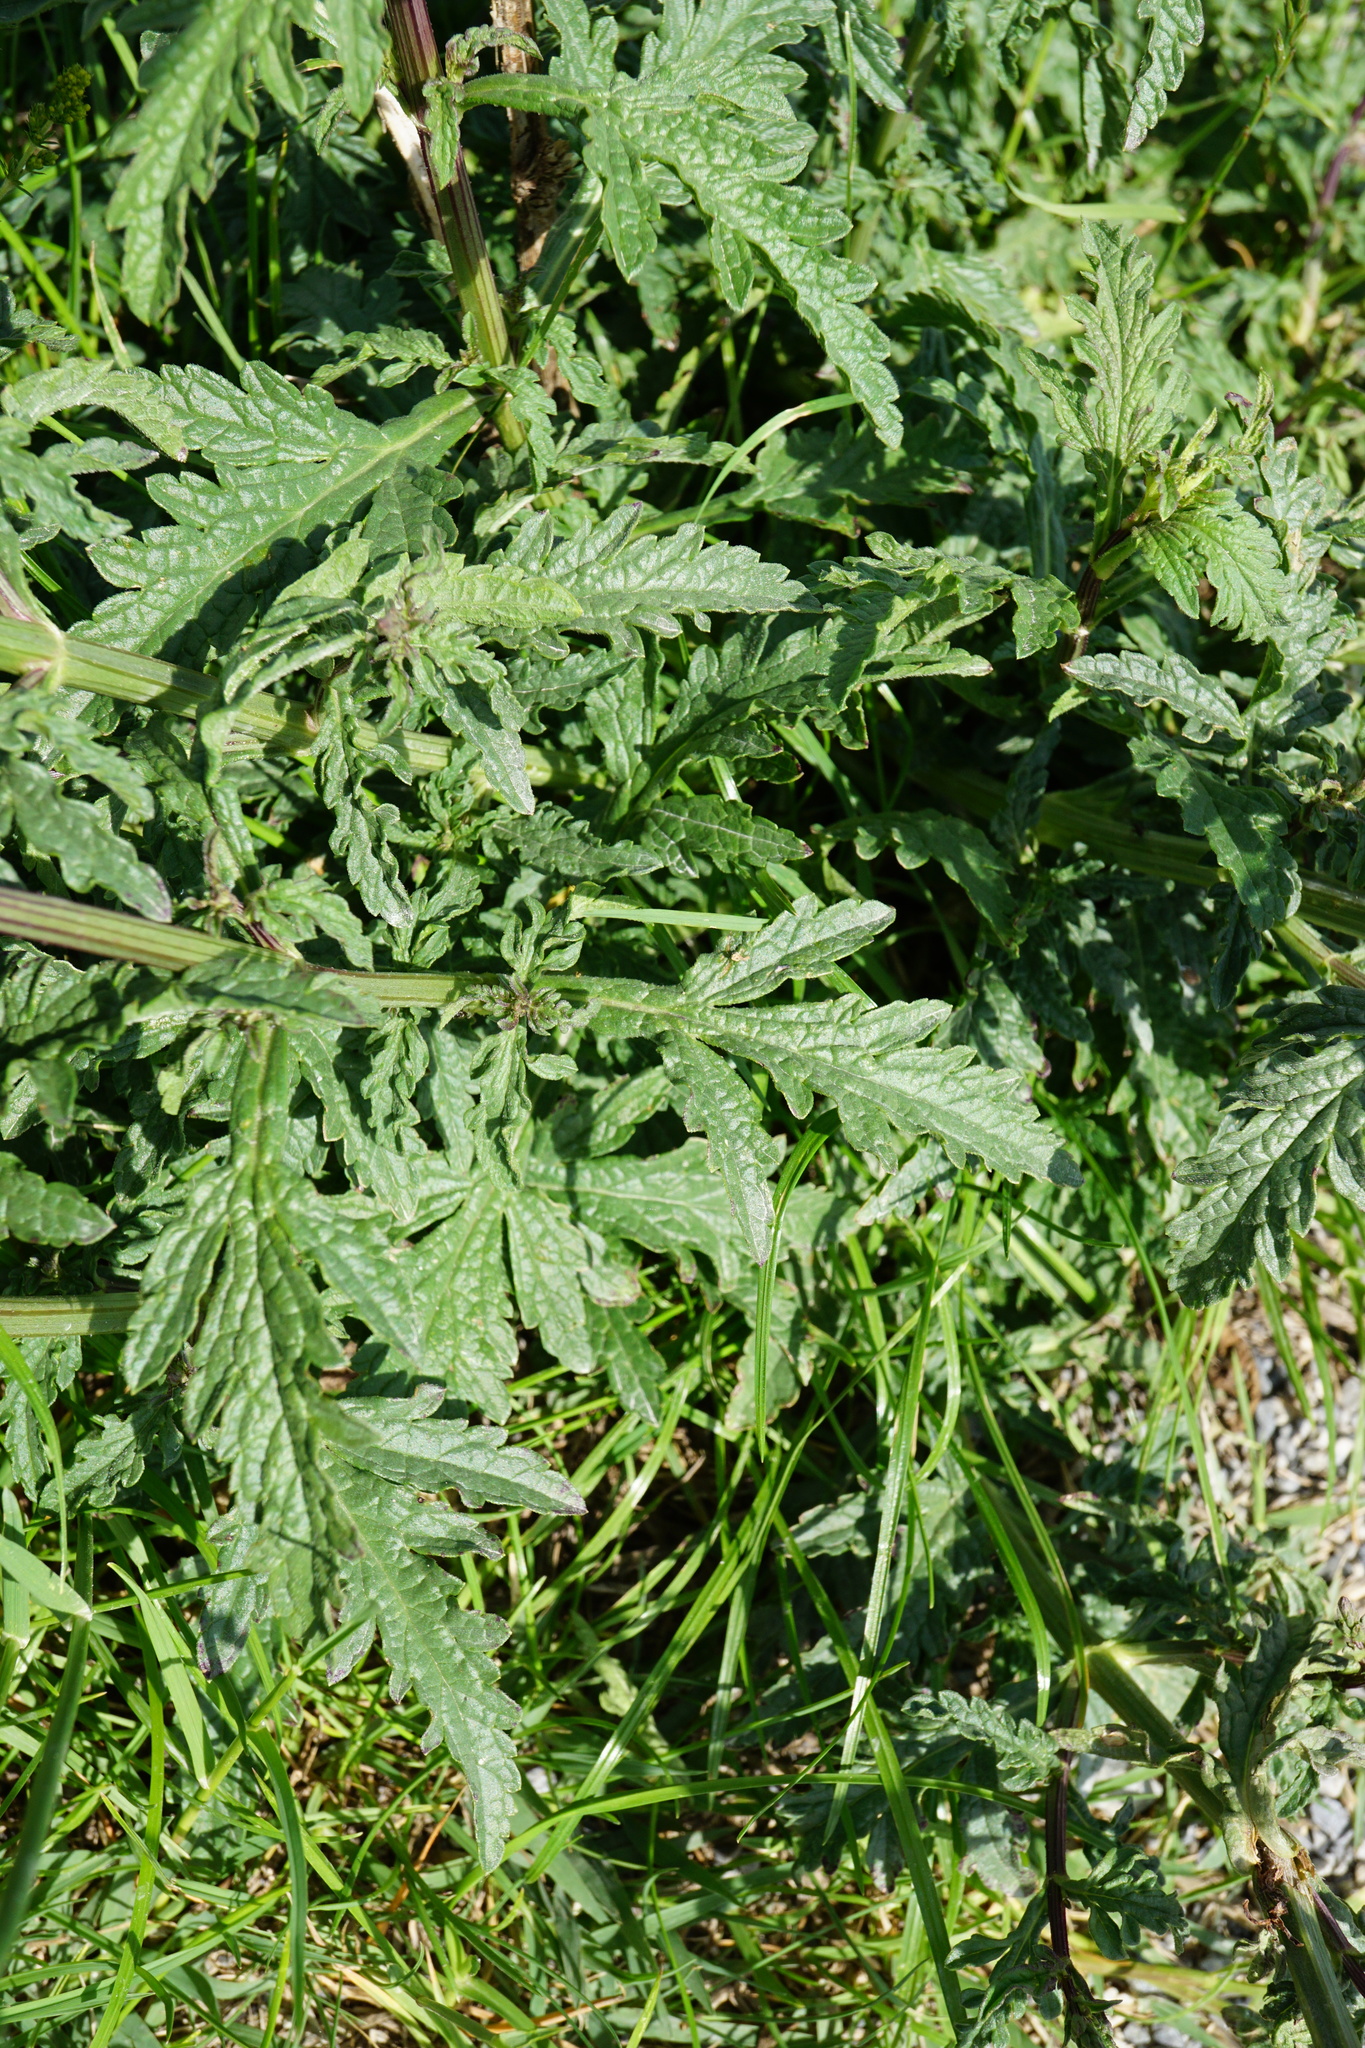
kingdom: Plantae
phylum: Tracheophyta
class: Magnoliopsida
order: Lamiales
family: Verbenaceae
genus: Verbena
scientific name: Verbena officinalis
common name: Vervain
